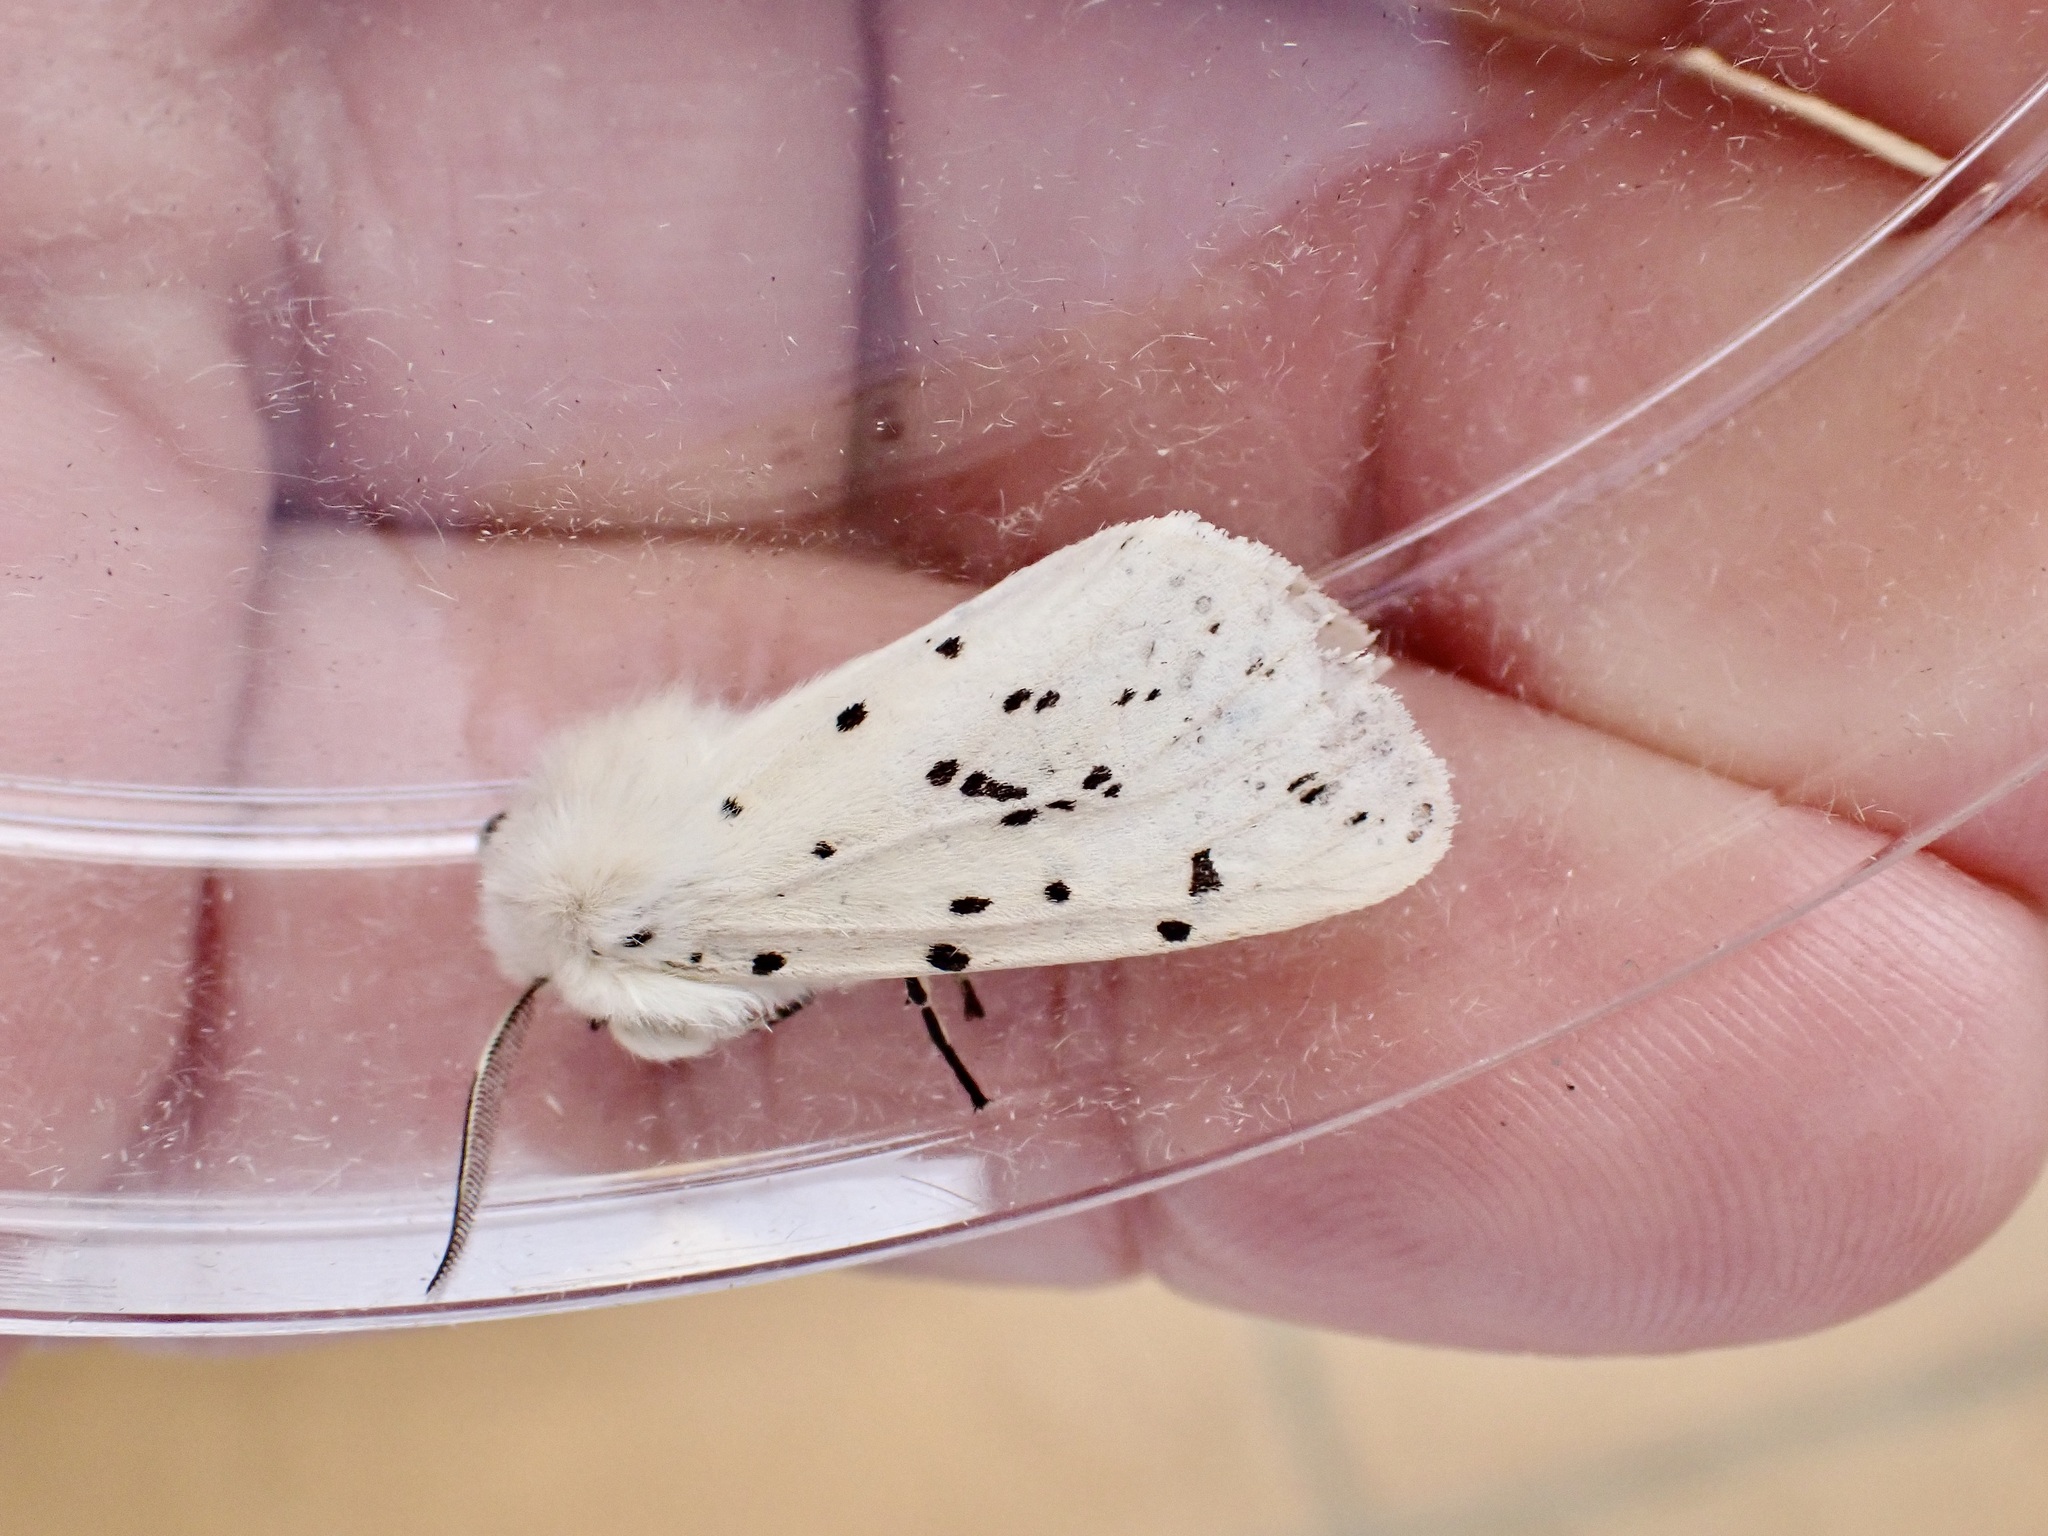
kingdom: Animalia
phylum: Arthropoda
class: Insecta
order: Lepidoptera
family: Erebidae
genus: Spilosoma
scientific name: Spilosoma lubricipeda
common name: White ermine
